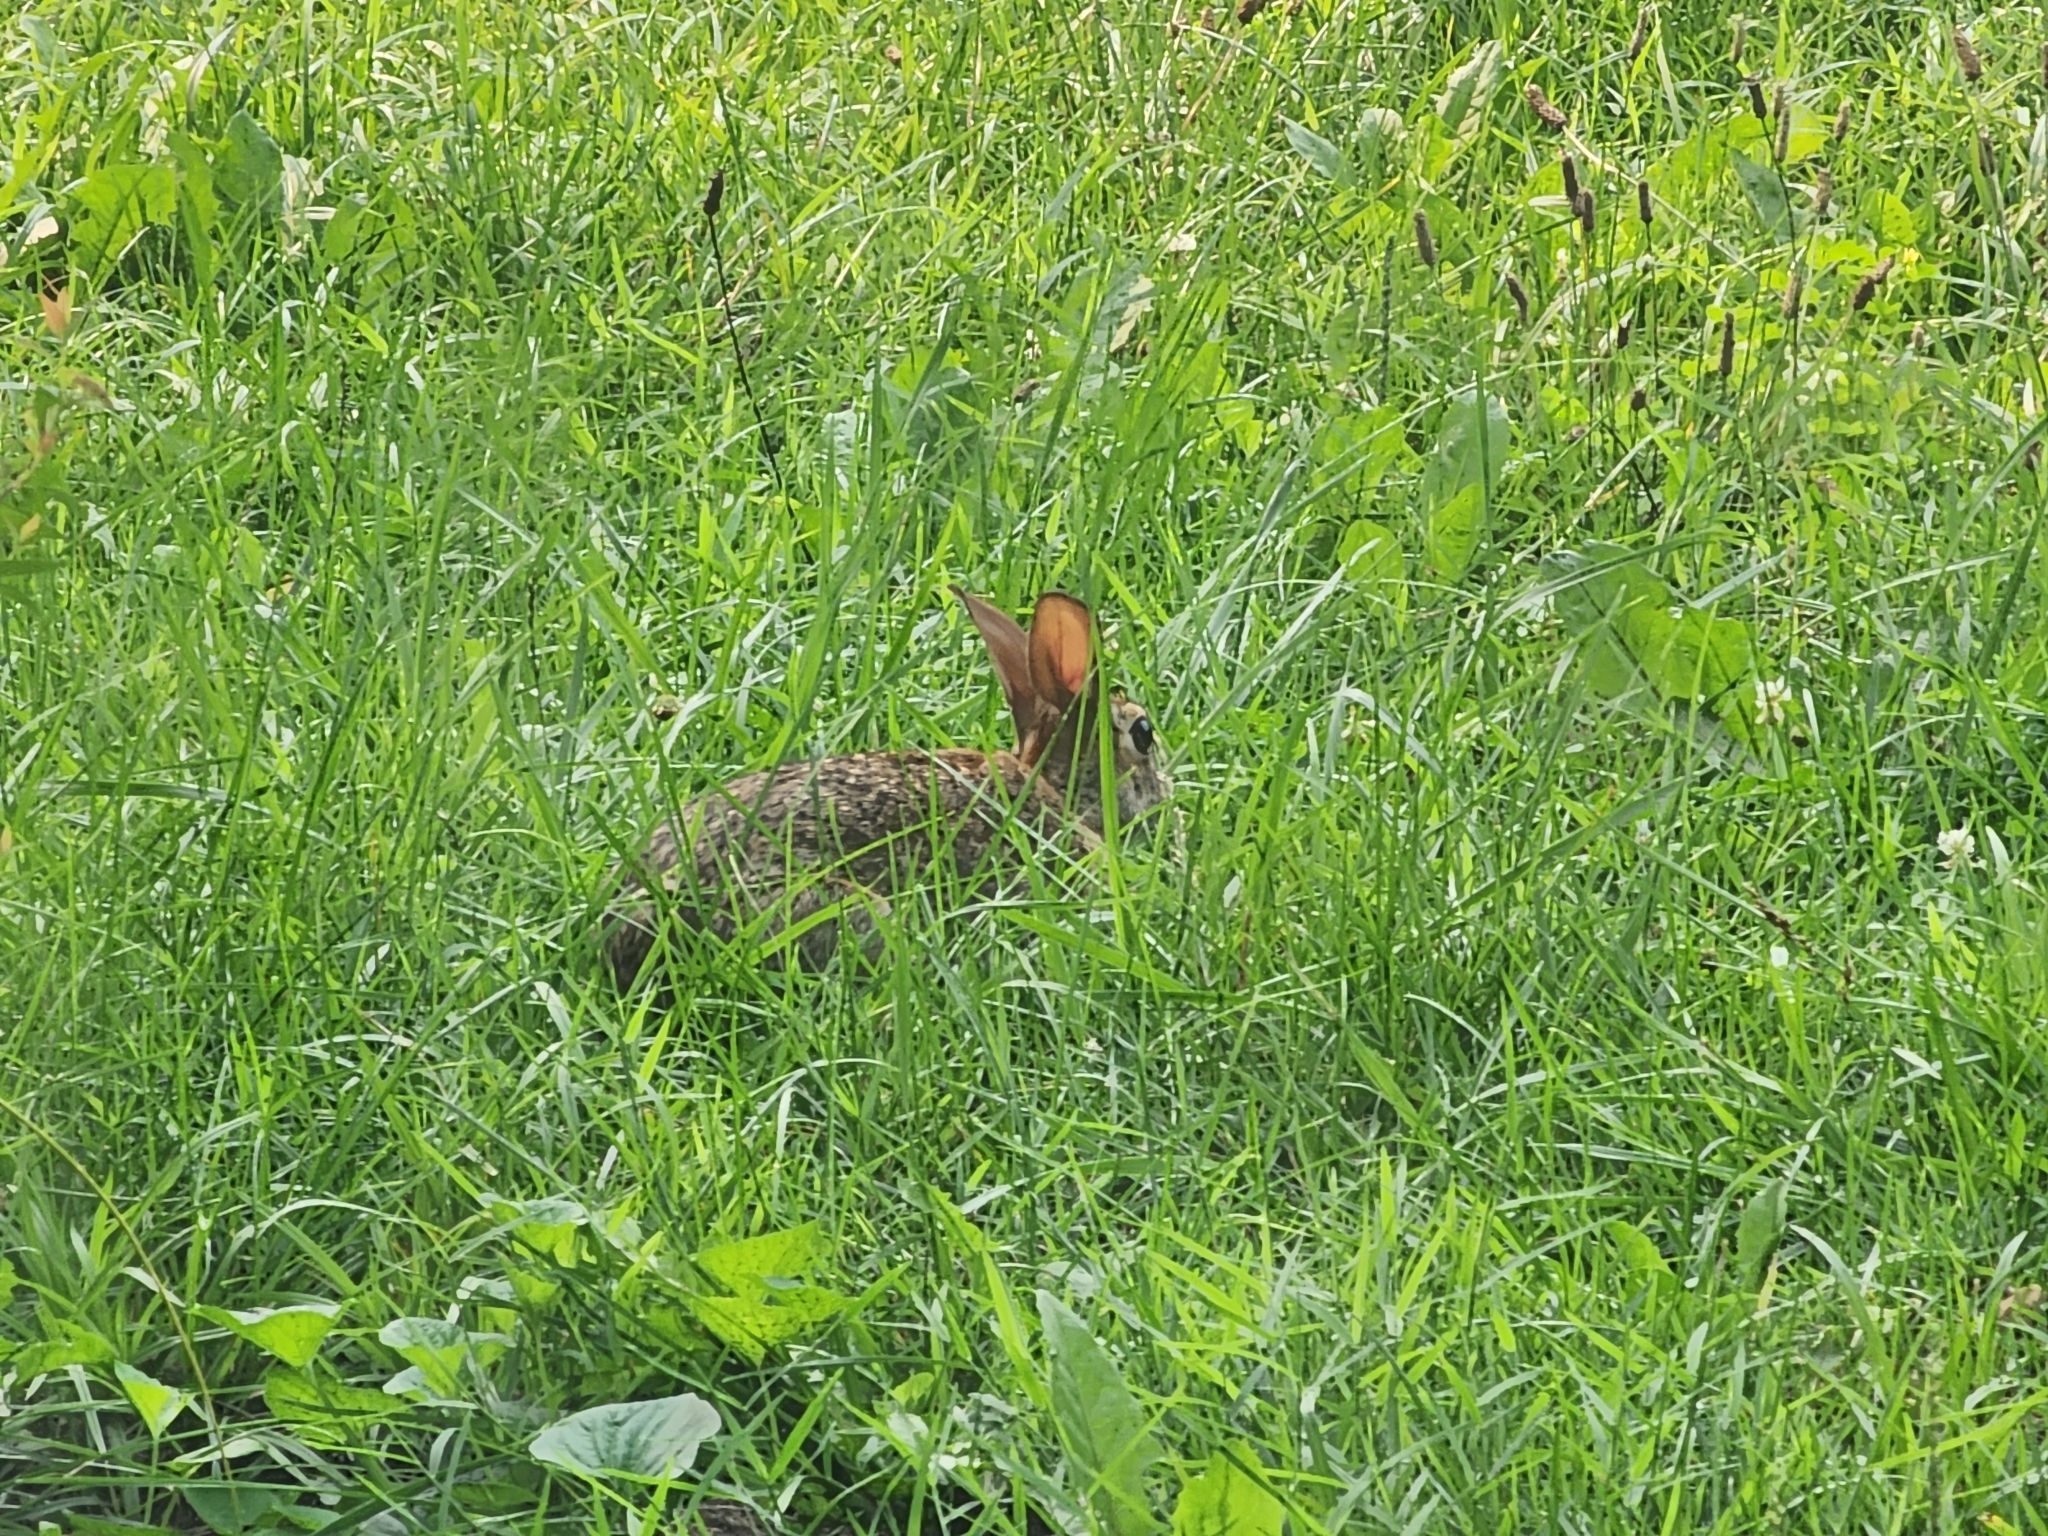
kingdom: Animalia
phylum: Chordata
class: Mammalia
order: Lagomorpha
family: Leporidae
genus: Sylvilagus
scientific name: Sylvilagus floridanus
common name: Eastern cottontail
